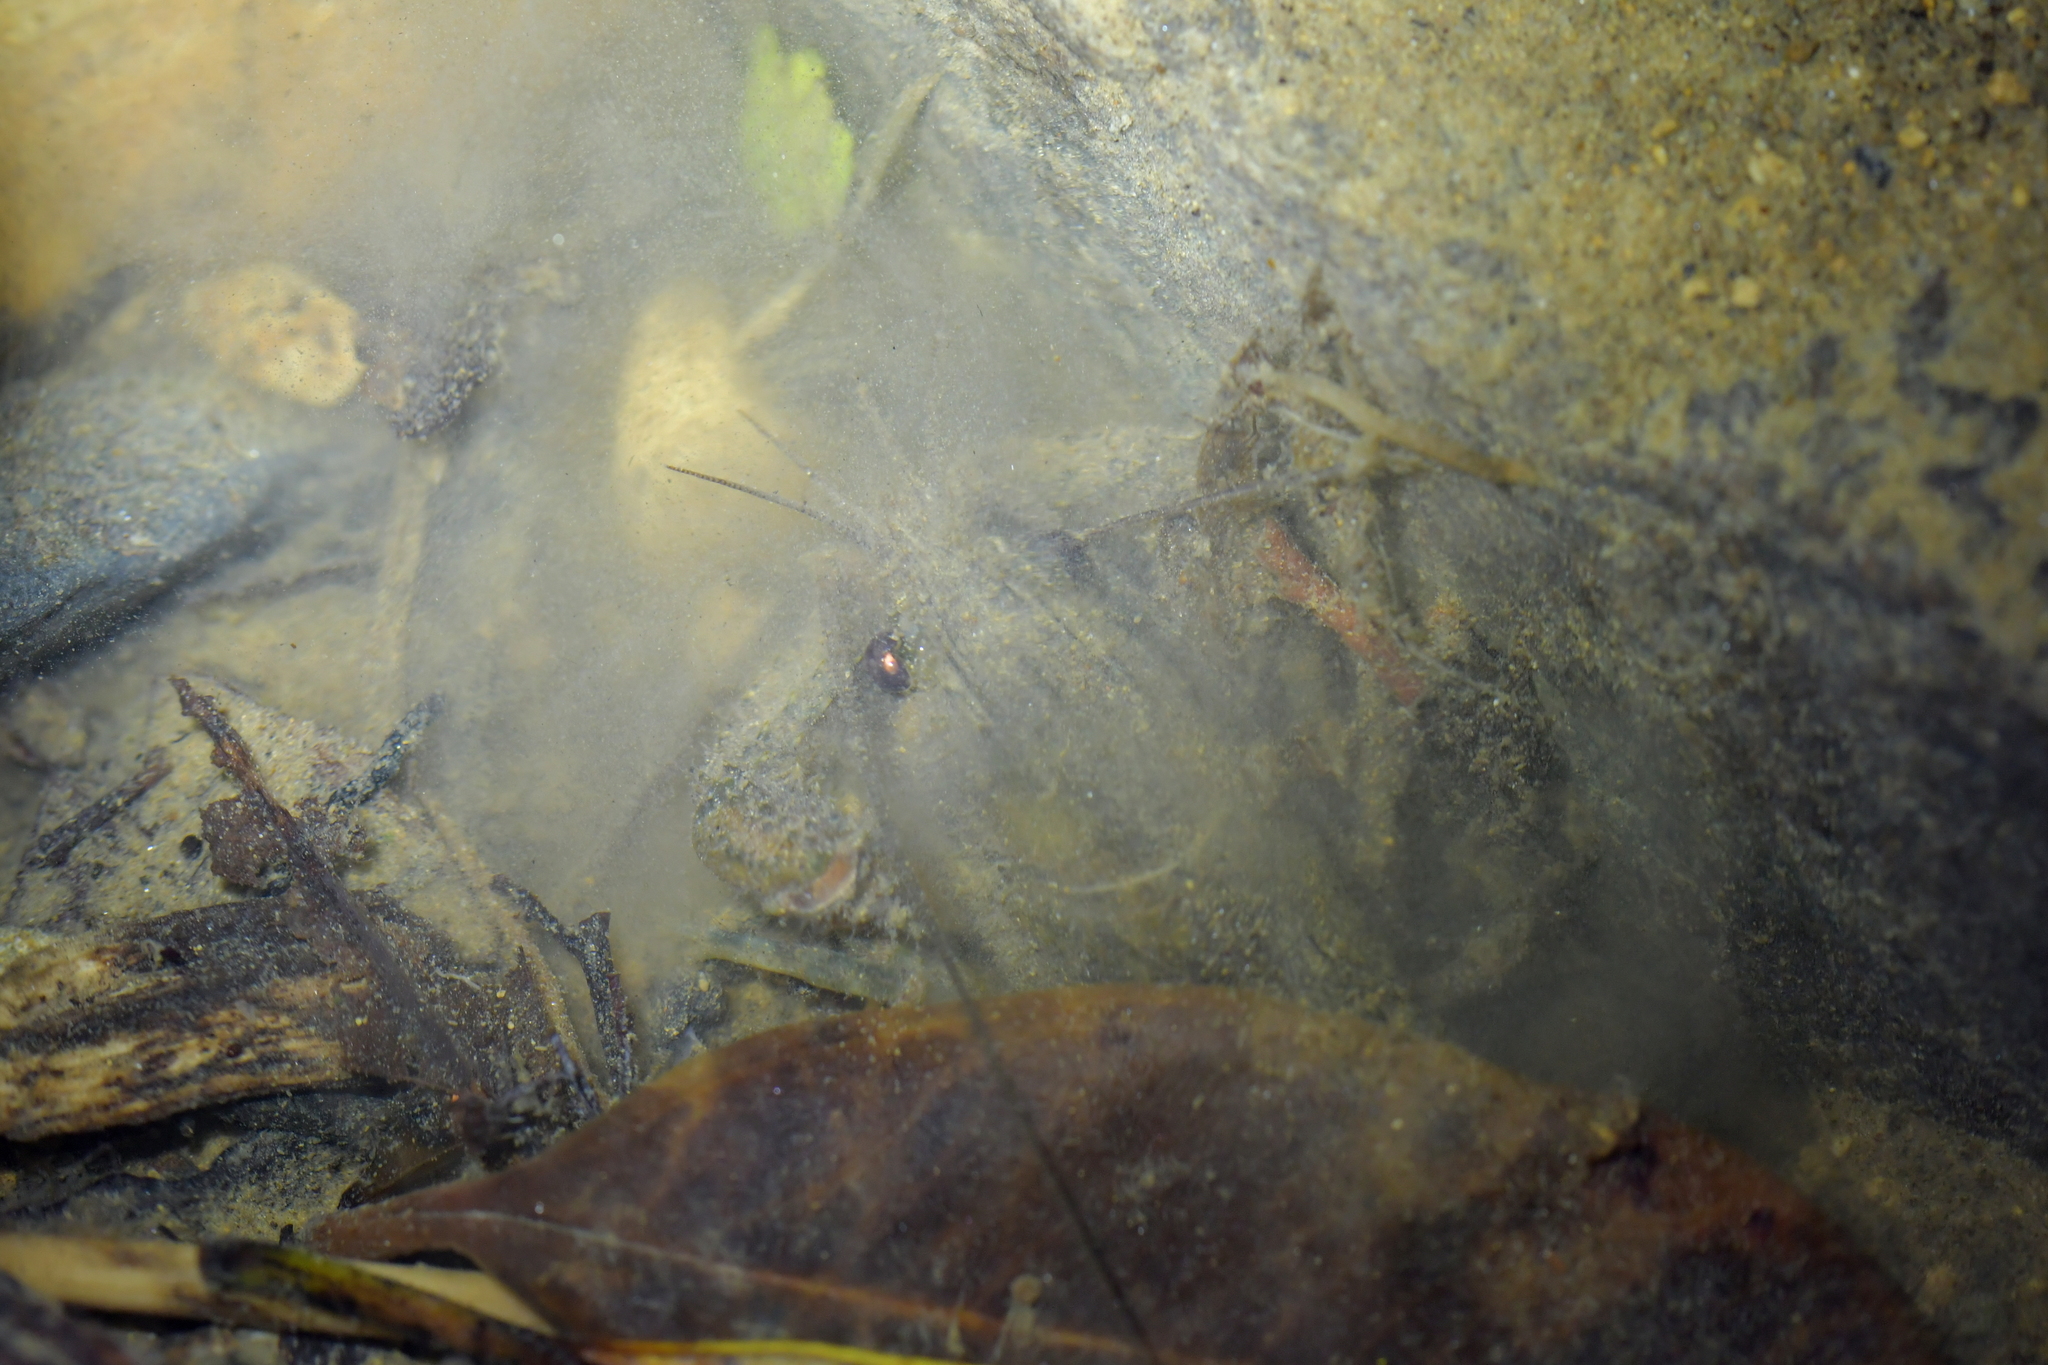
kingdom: Animalia
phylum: Arthropoda
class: Malacostraca
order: Decapoda
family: Parastacidae
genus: Paranephrops
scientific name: Paranephrops planifrons
